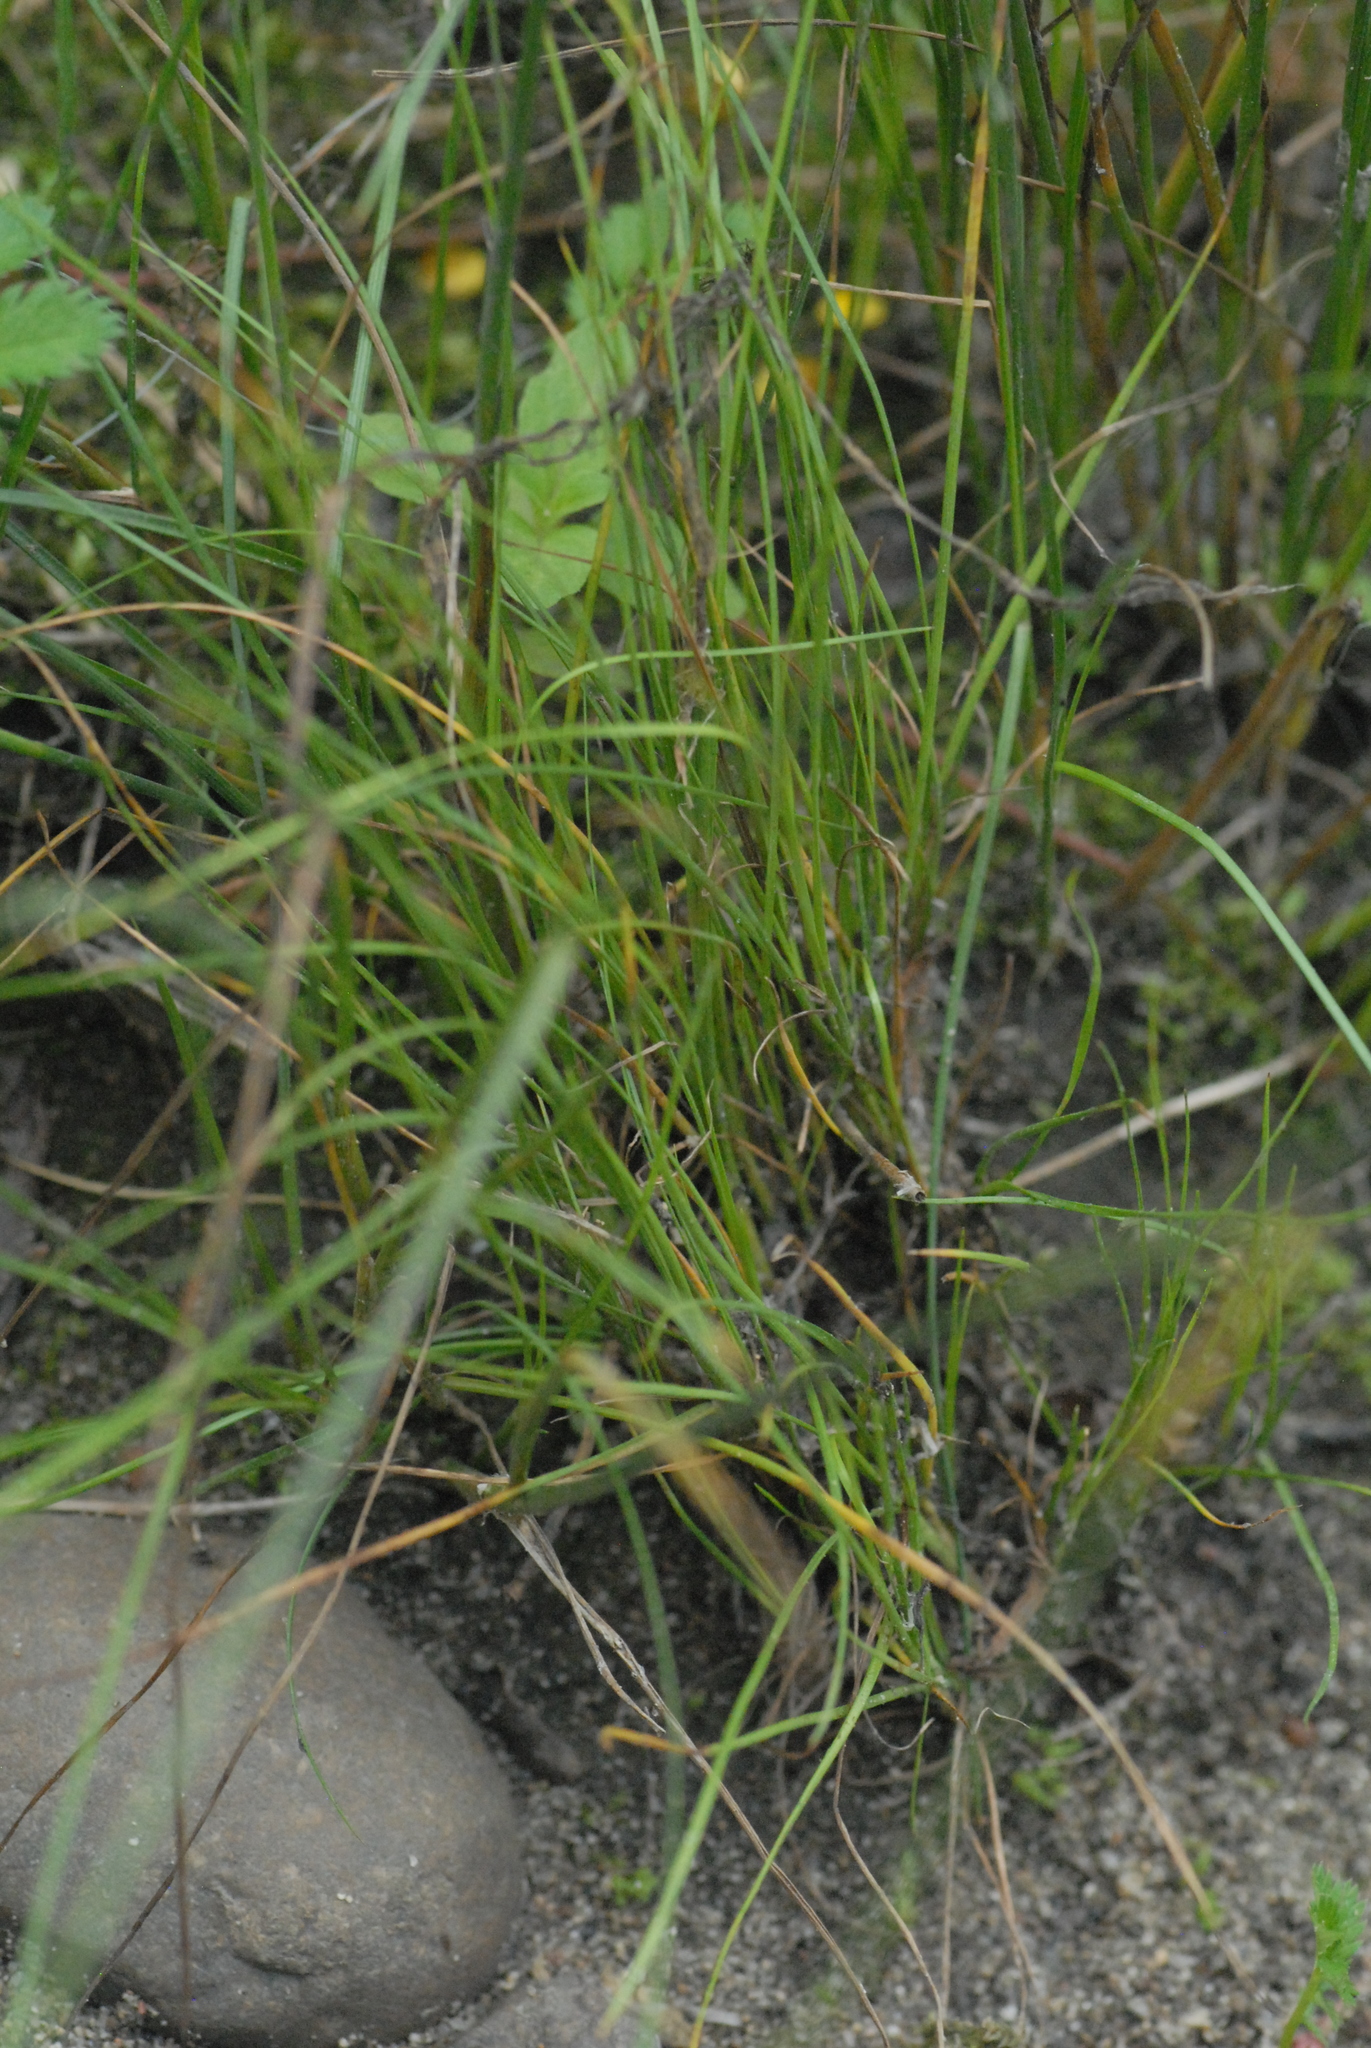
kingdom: Plantae
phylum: Tracheophyta
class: Liliopsida
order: Poales
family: Juncaceae
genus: Juncus
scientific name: Juncus compressus
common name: Round-fruited rush
